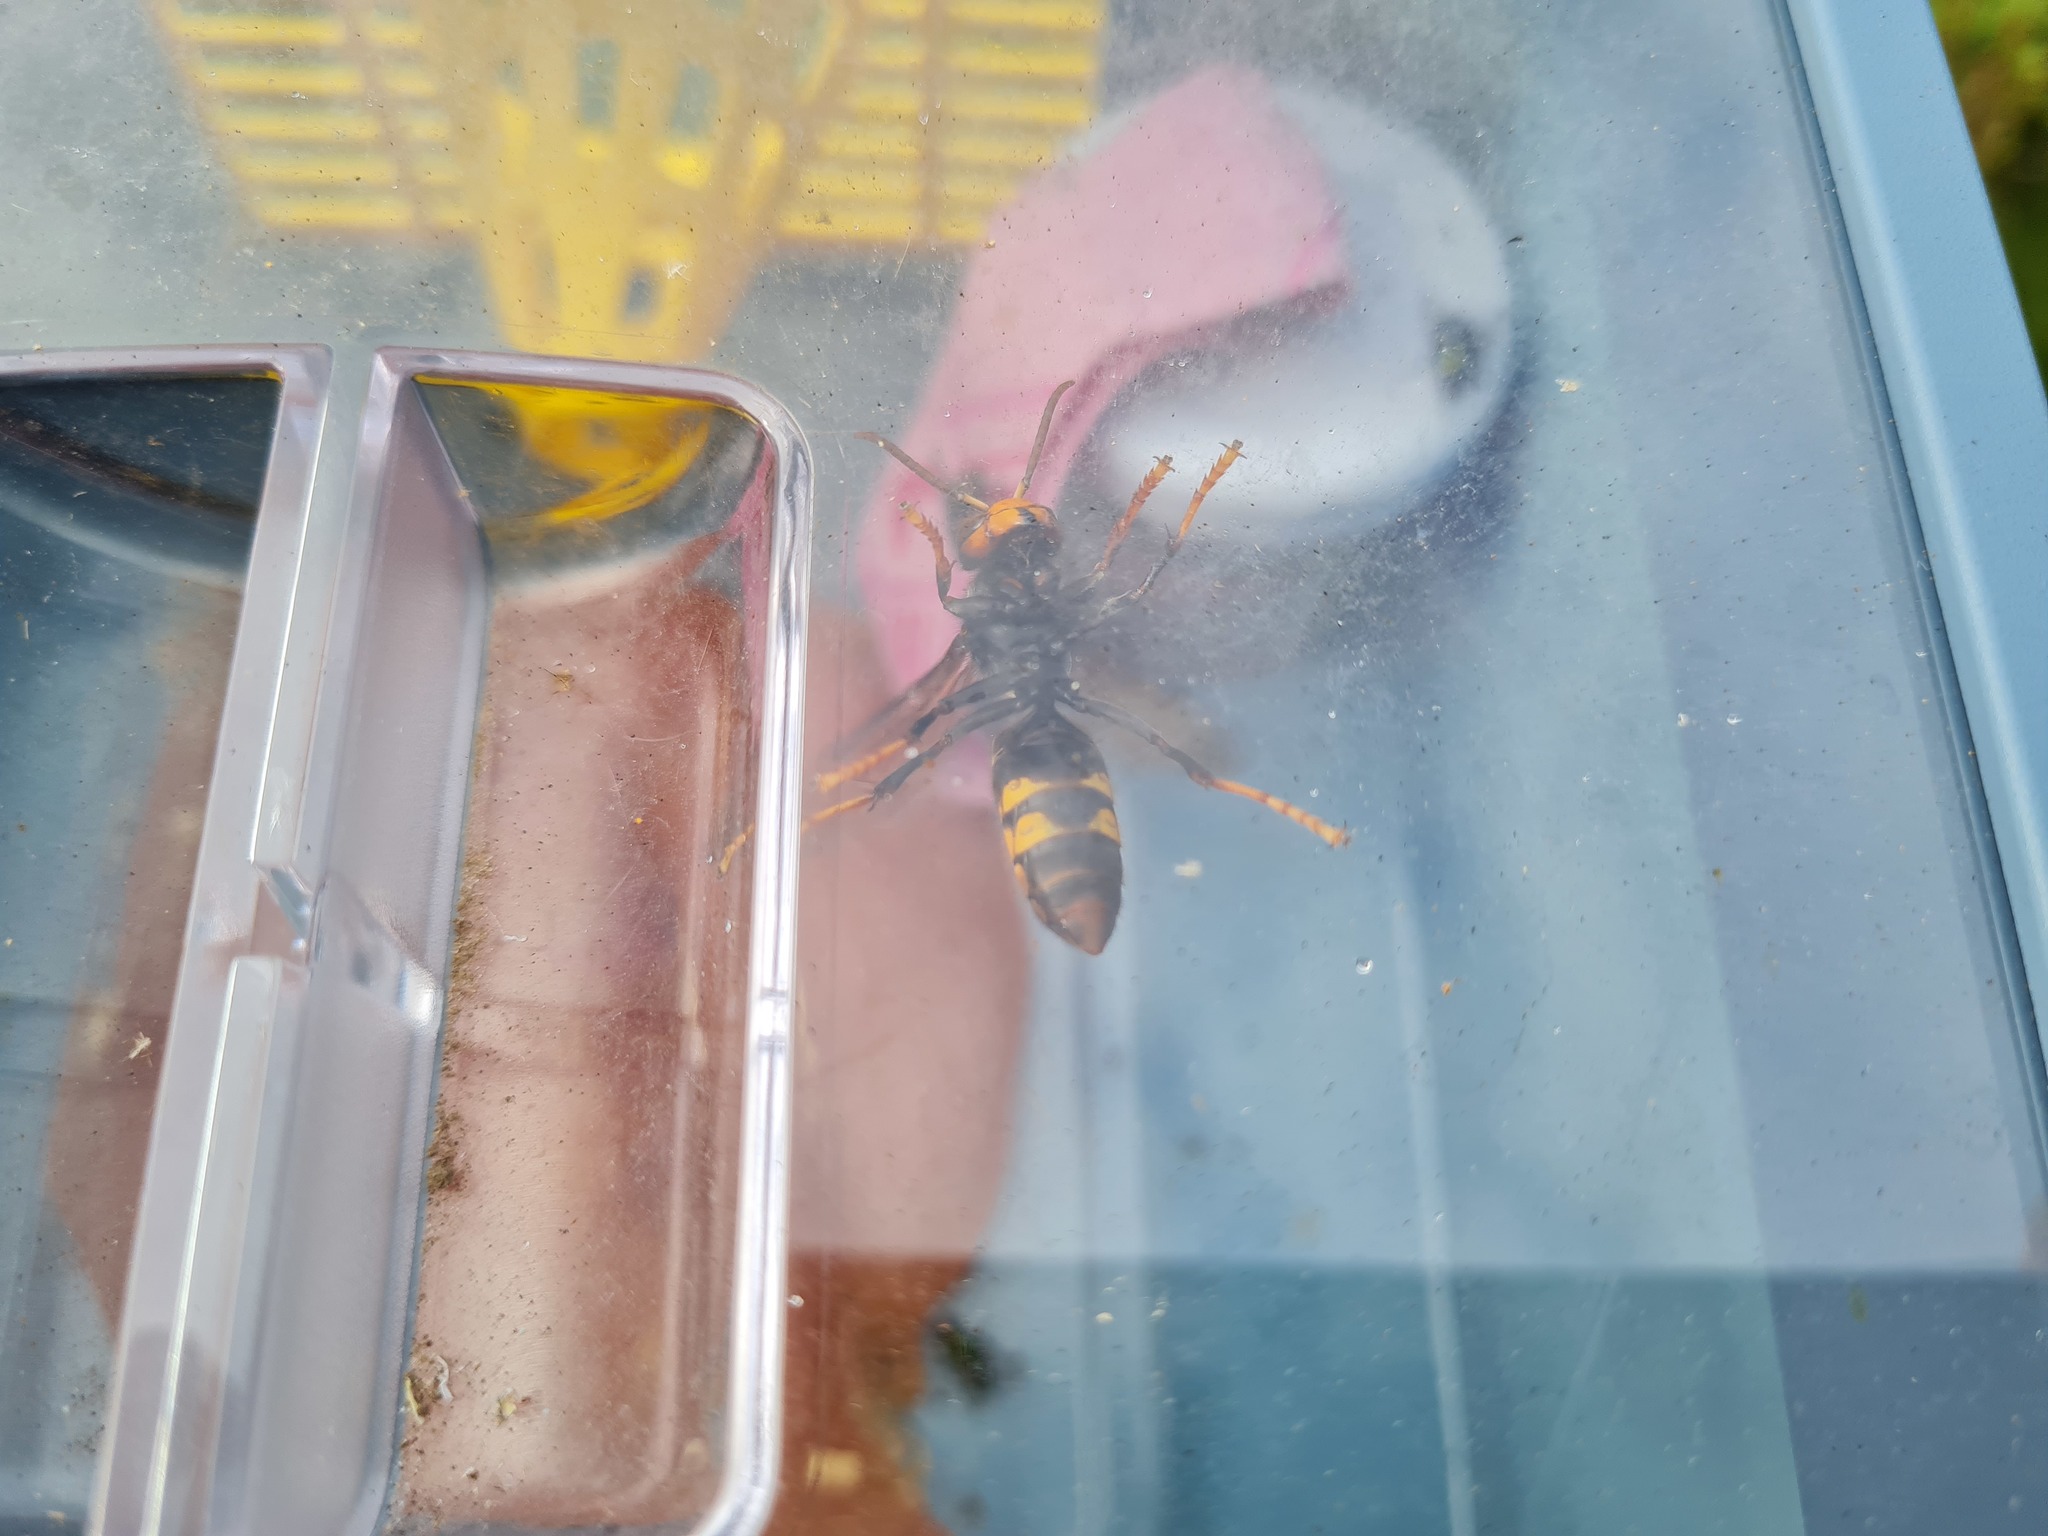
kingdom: Animalia
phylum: Arthropoda
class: Insecta
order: Hymenoptera
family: Vespidae
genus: Vespa
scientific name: Vespa velutina
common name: Asian hornet
